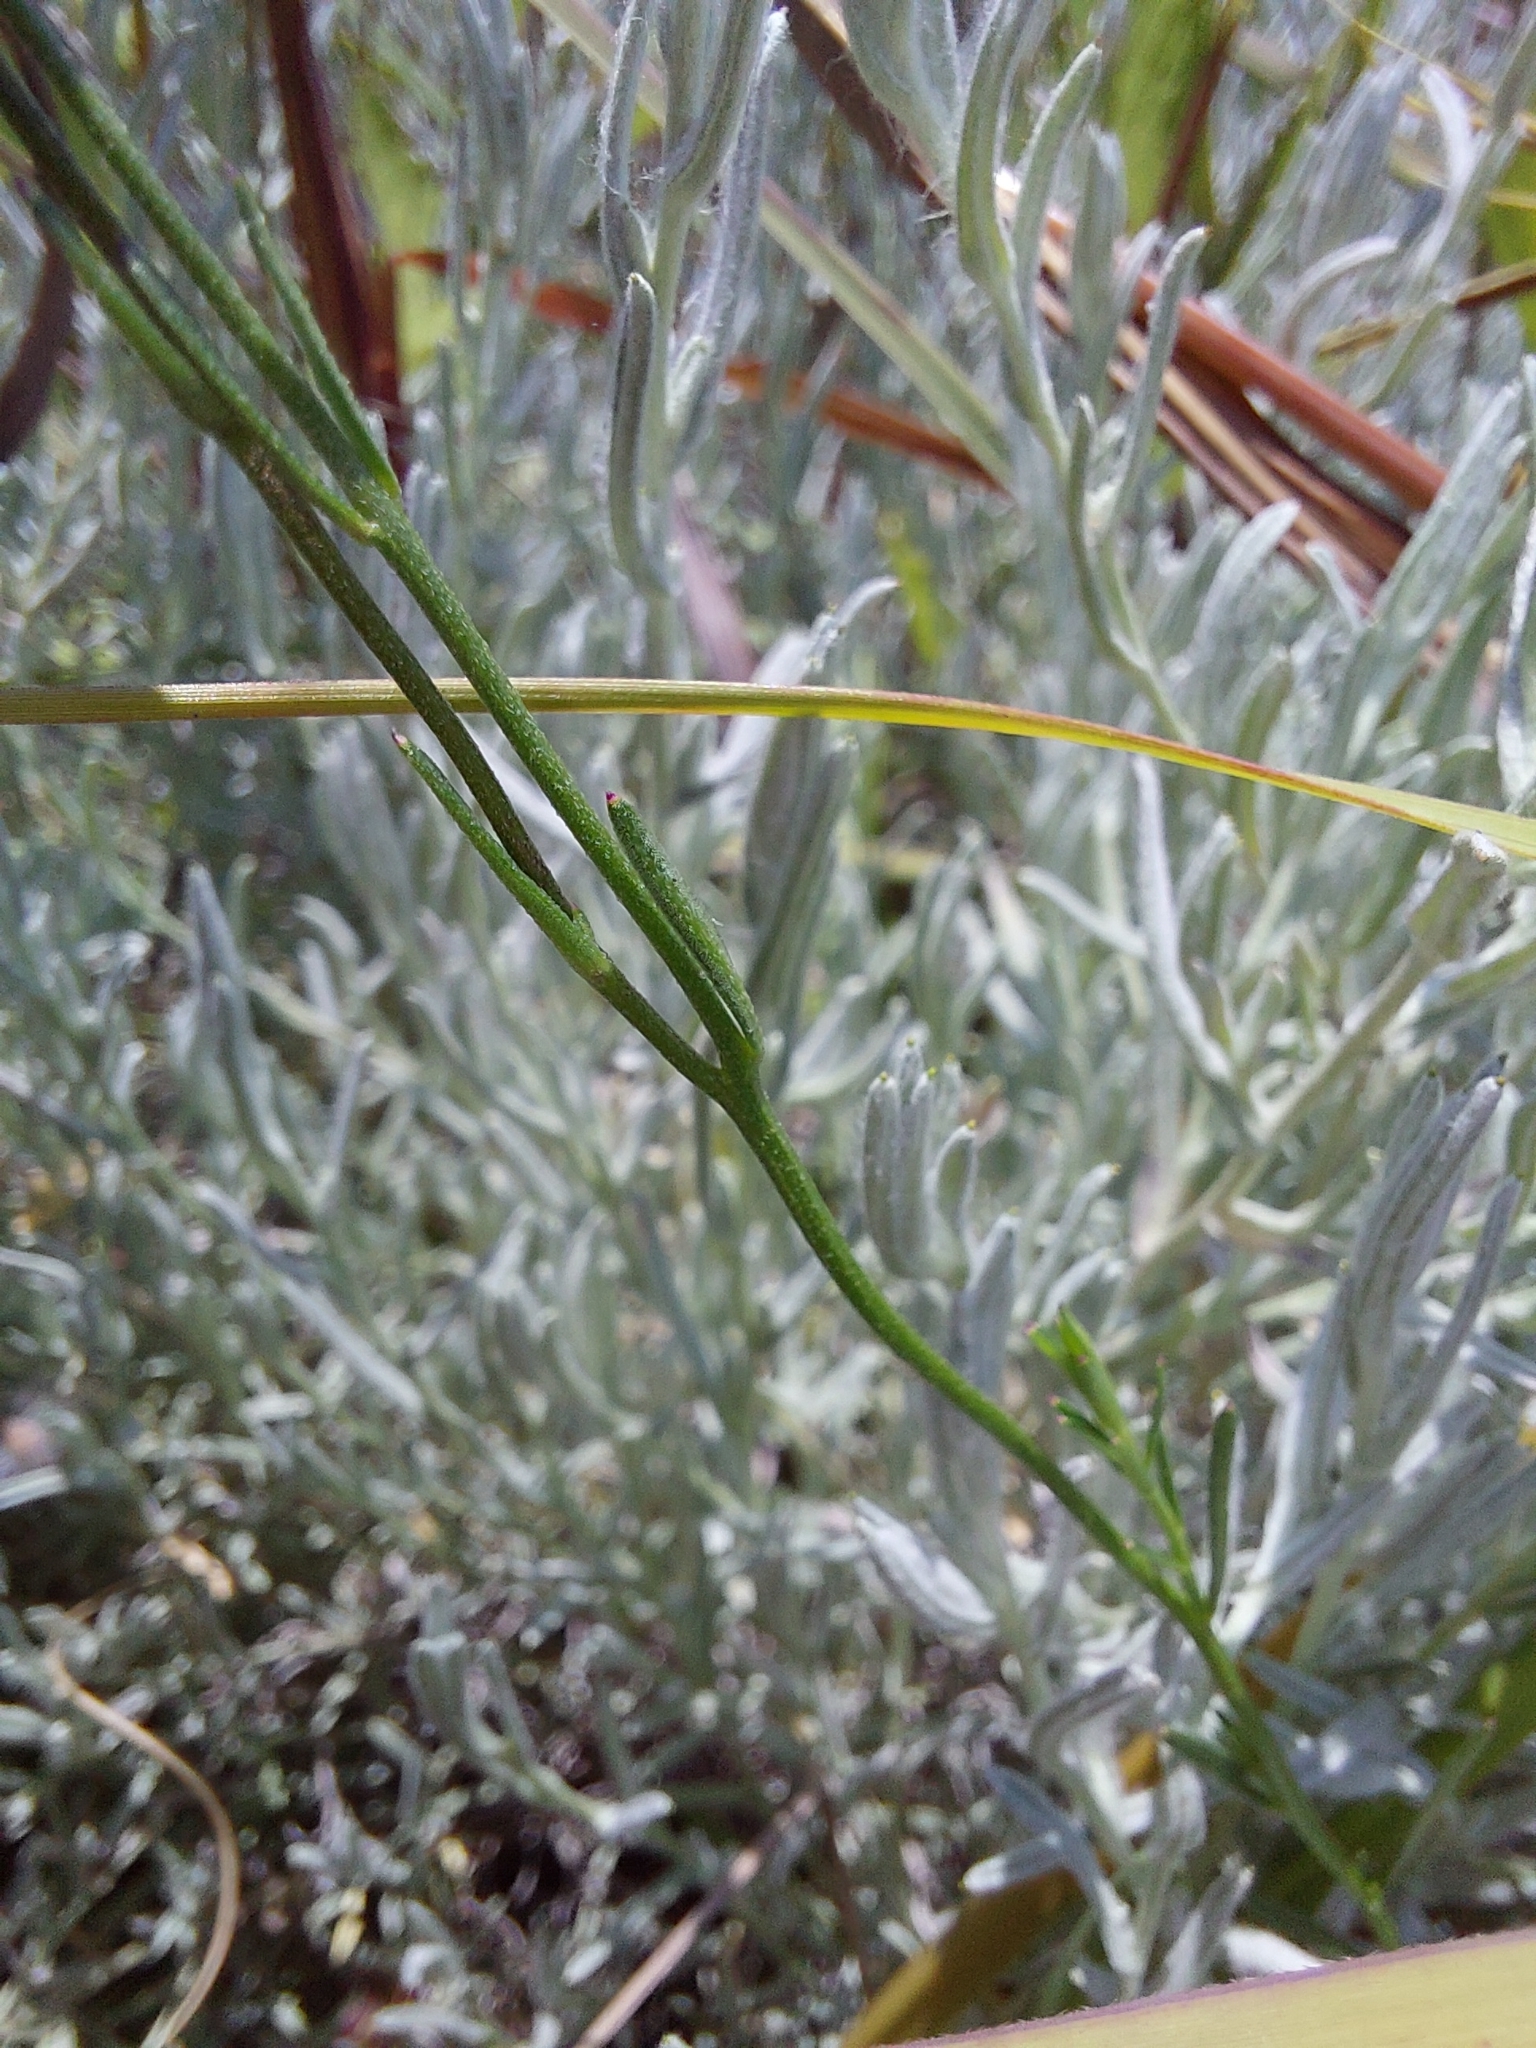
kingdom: Plantae
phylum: Tracheophyta
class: Magnoliopsida
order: Asterales
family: Campanulaceae
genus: Monopsis
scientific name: Monopsis decipiens
